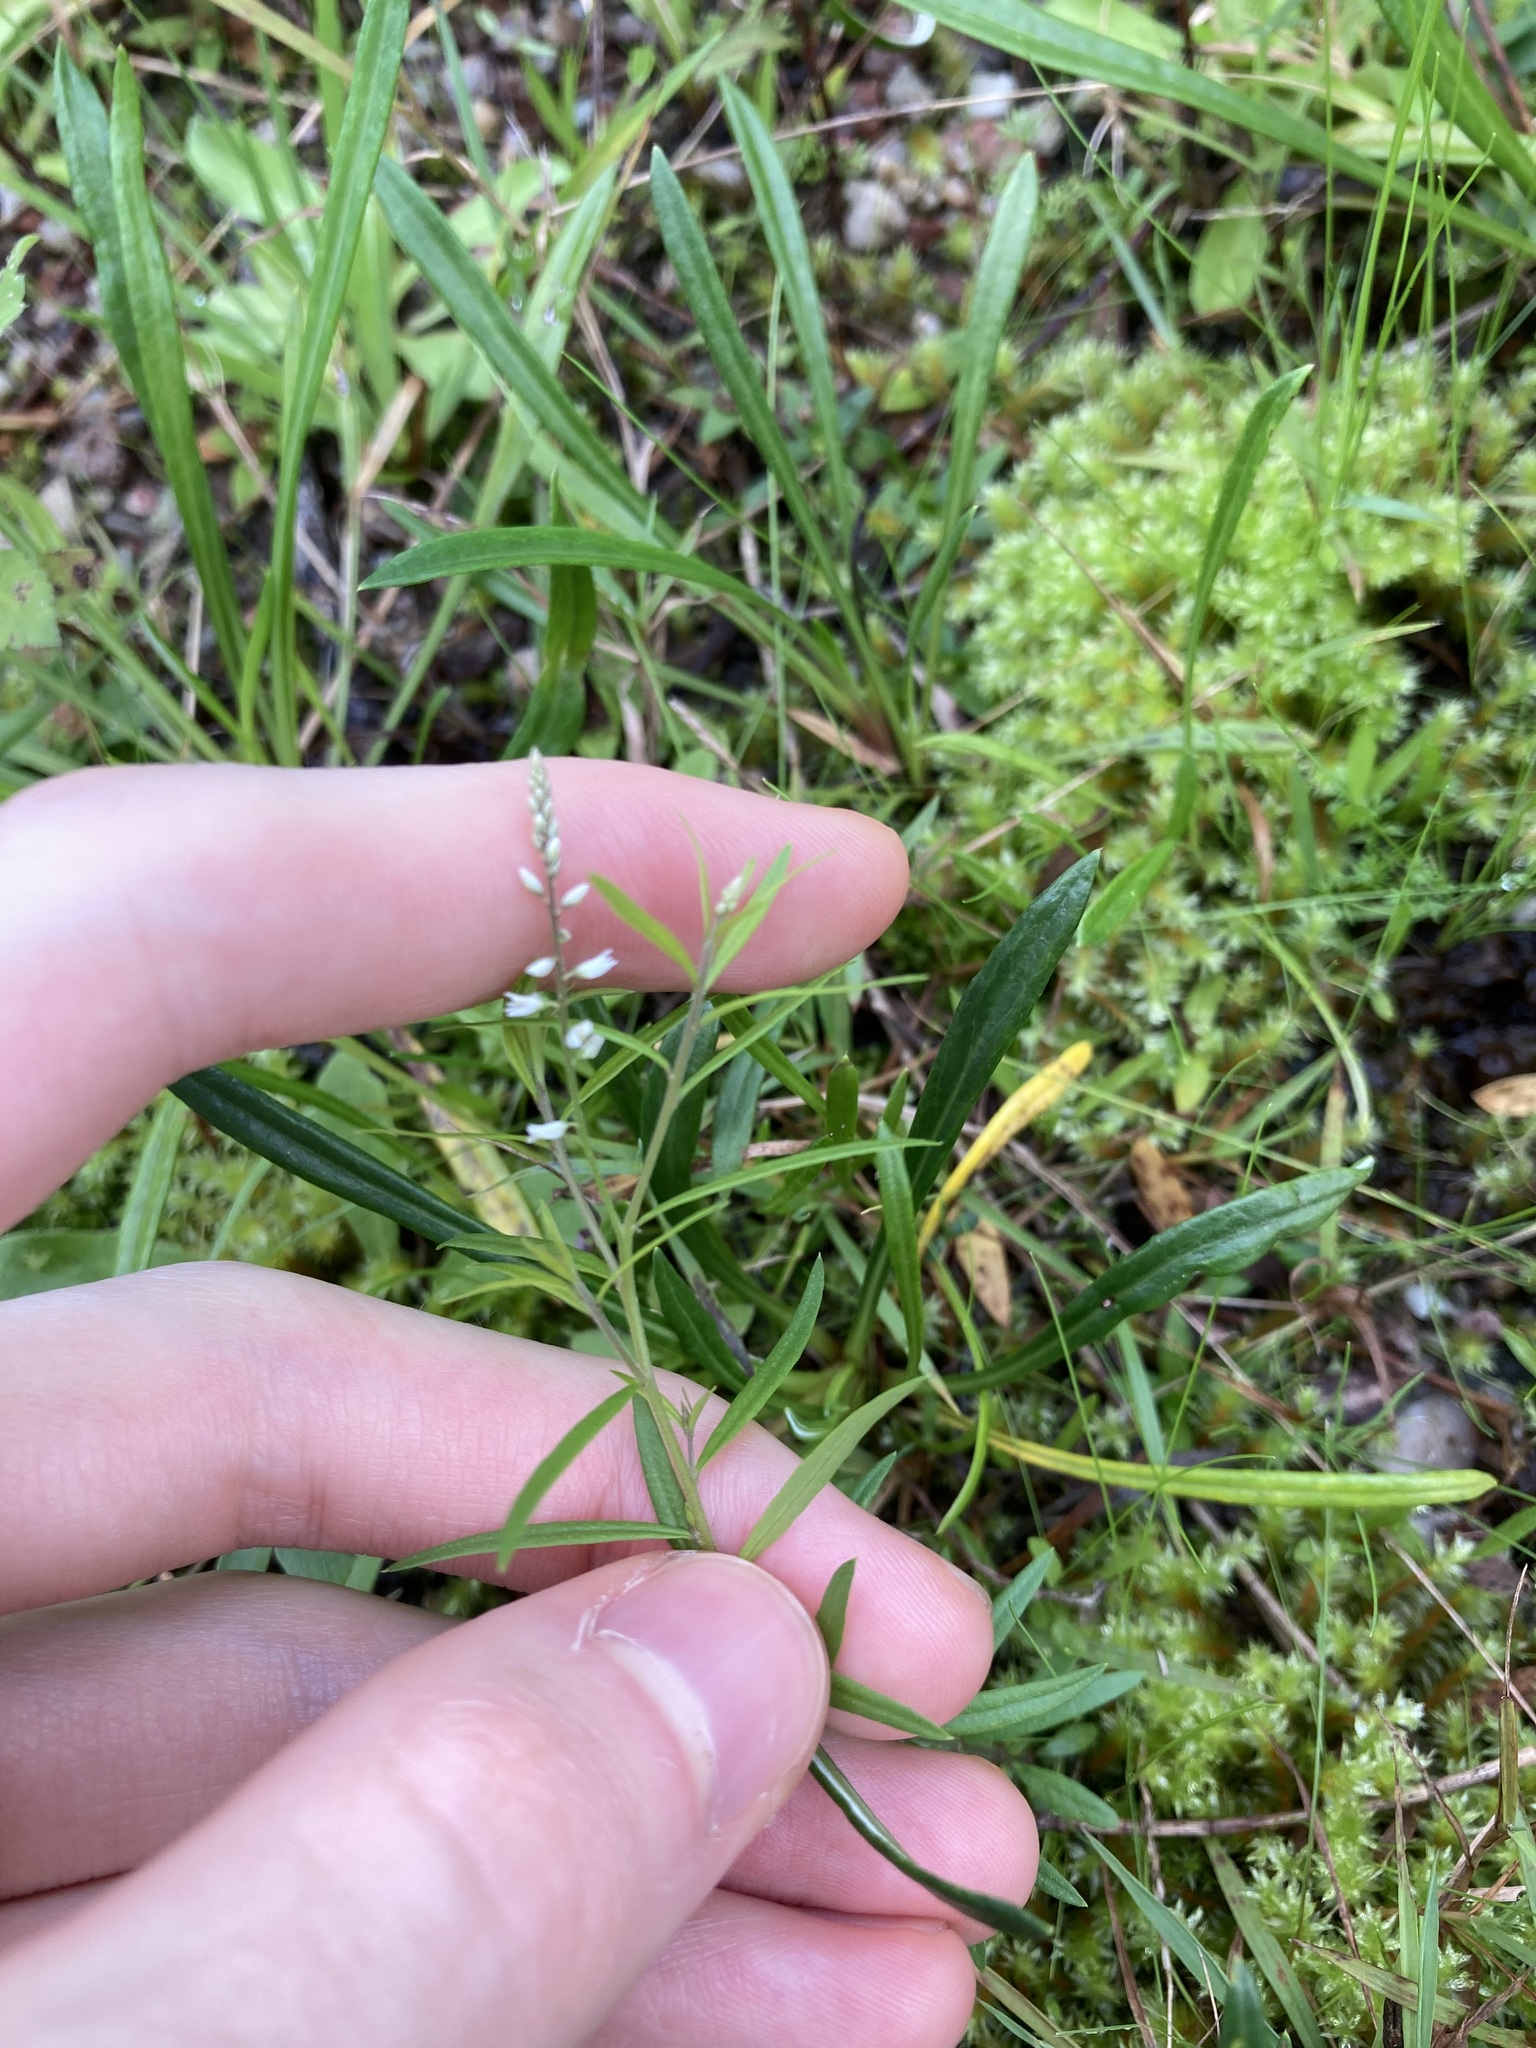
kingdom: Plantae
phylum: Tracheophyta
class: Magnoliopsida
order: Fabales
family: Polygalaceae
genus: Polygala
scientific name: Polygala paniculata
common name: Orosne
